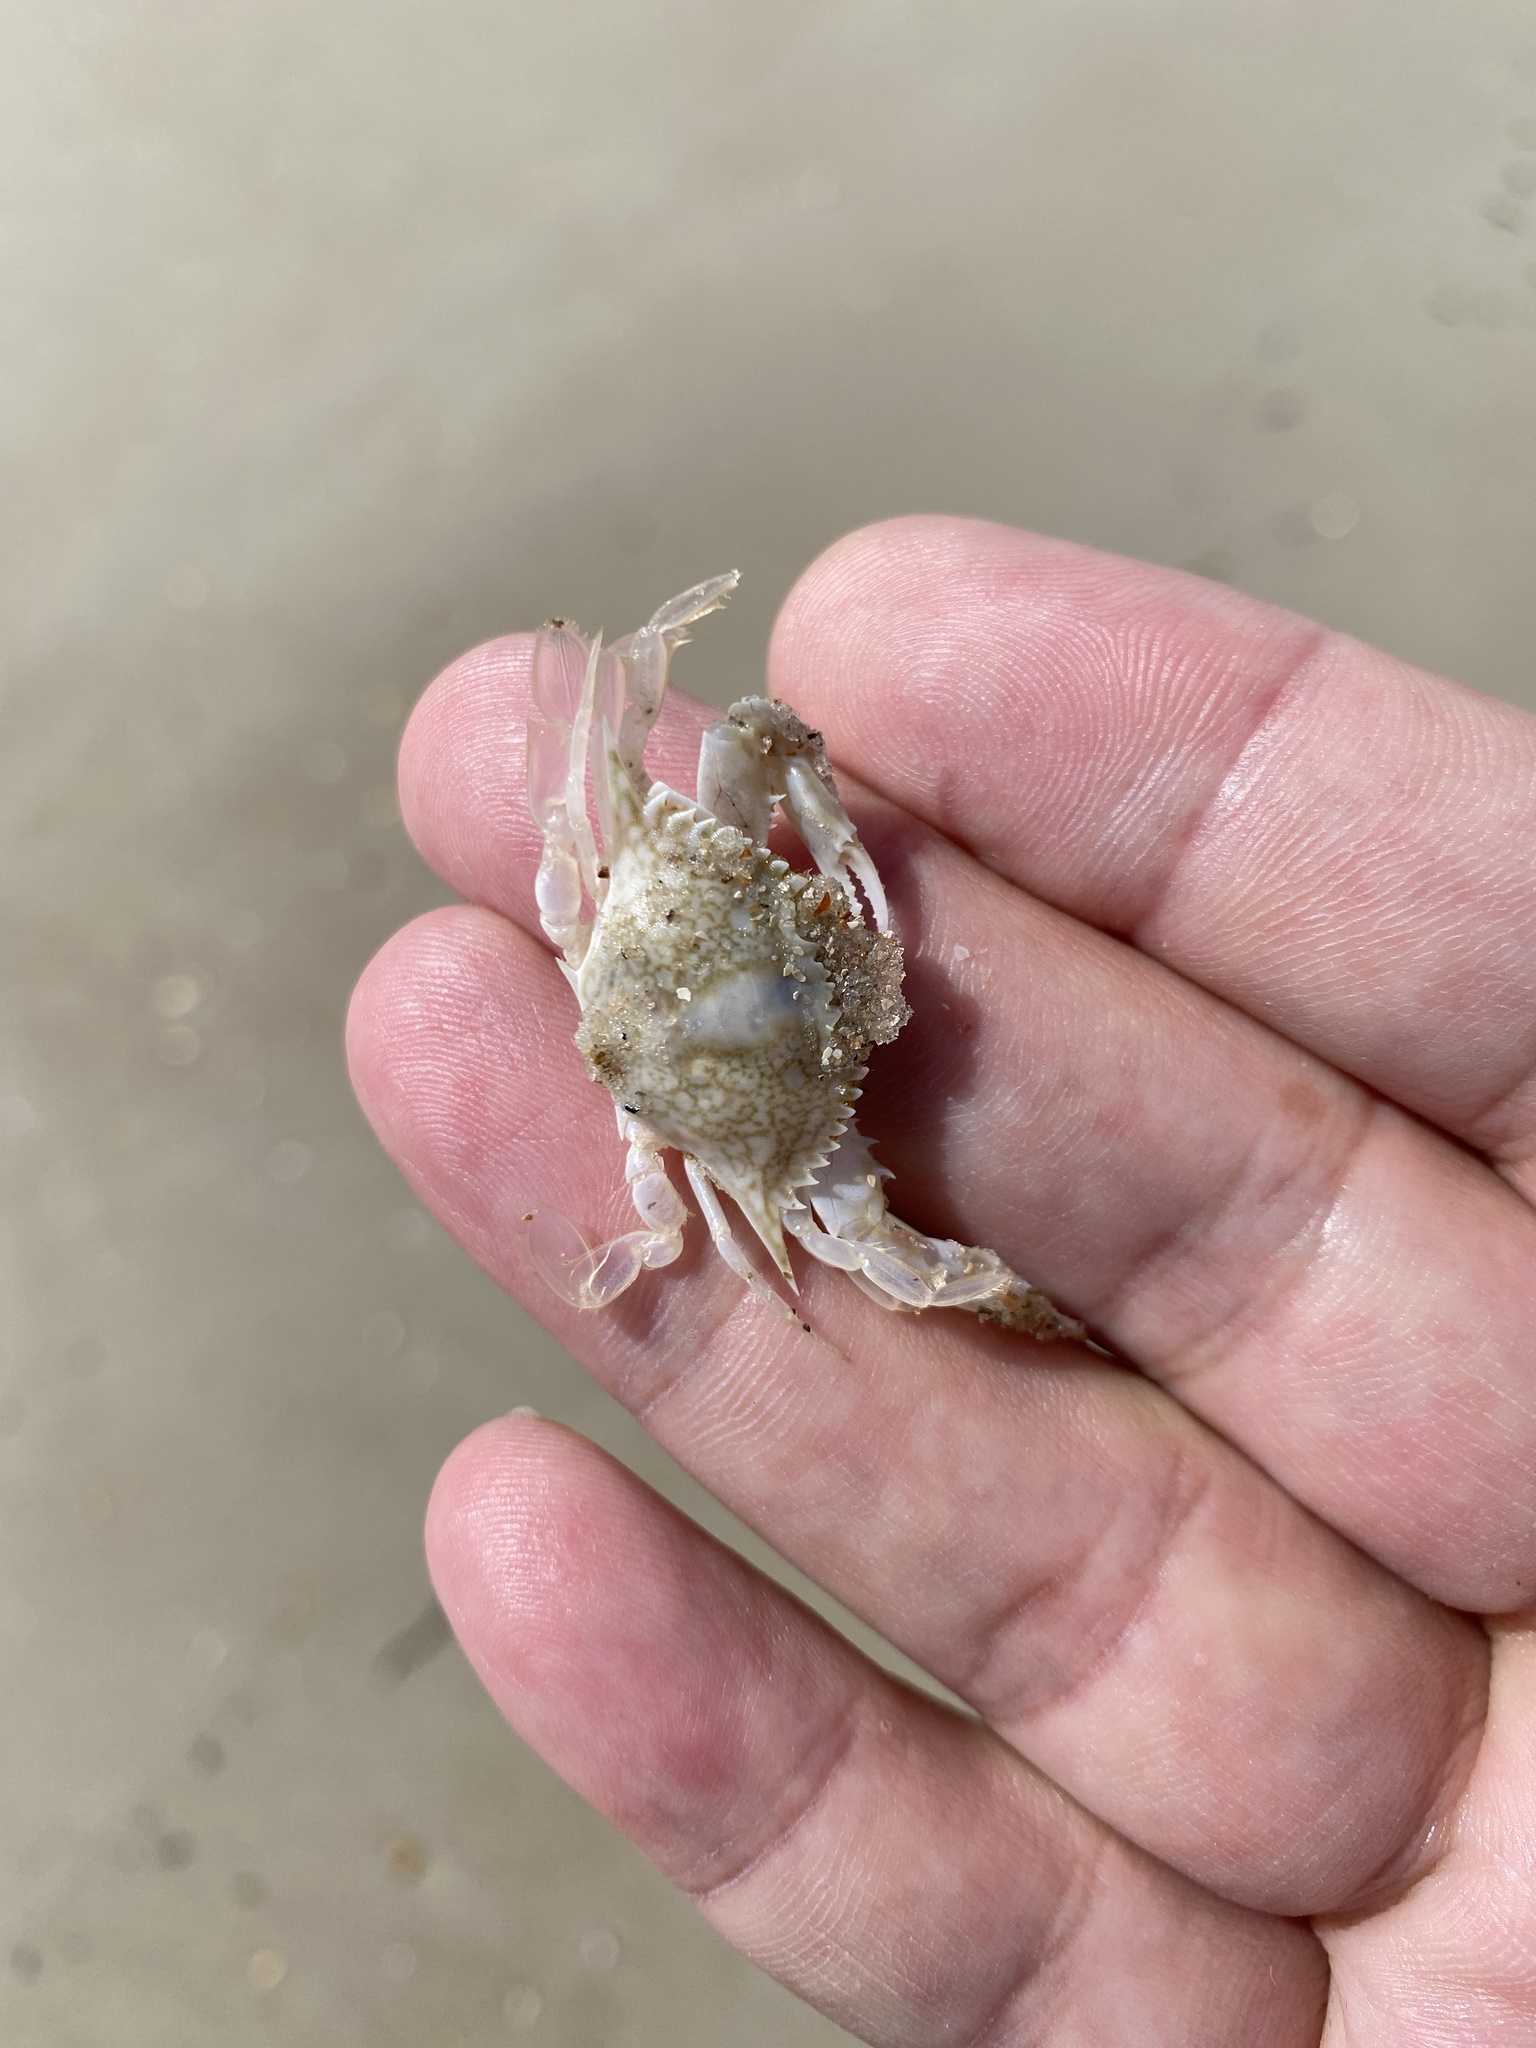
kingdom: Animalia
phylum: Arthropoda
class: Malacostraca
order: Decapoda
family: Portunidae
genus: Arenaeus
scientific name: Arenaeus cribrarius
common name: Speckled crab
